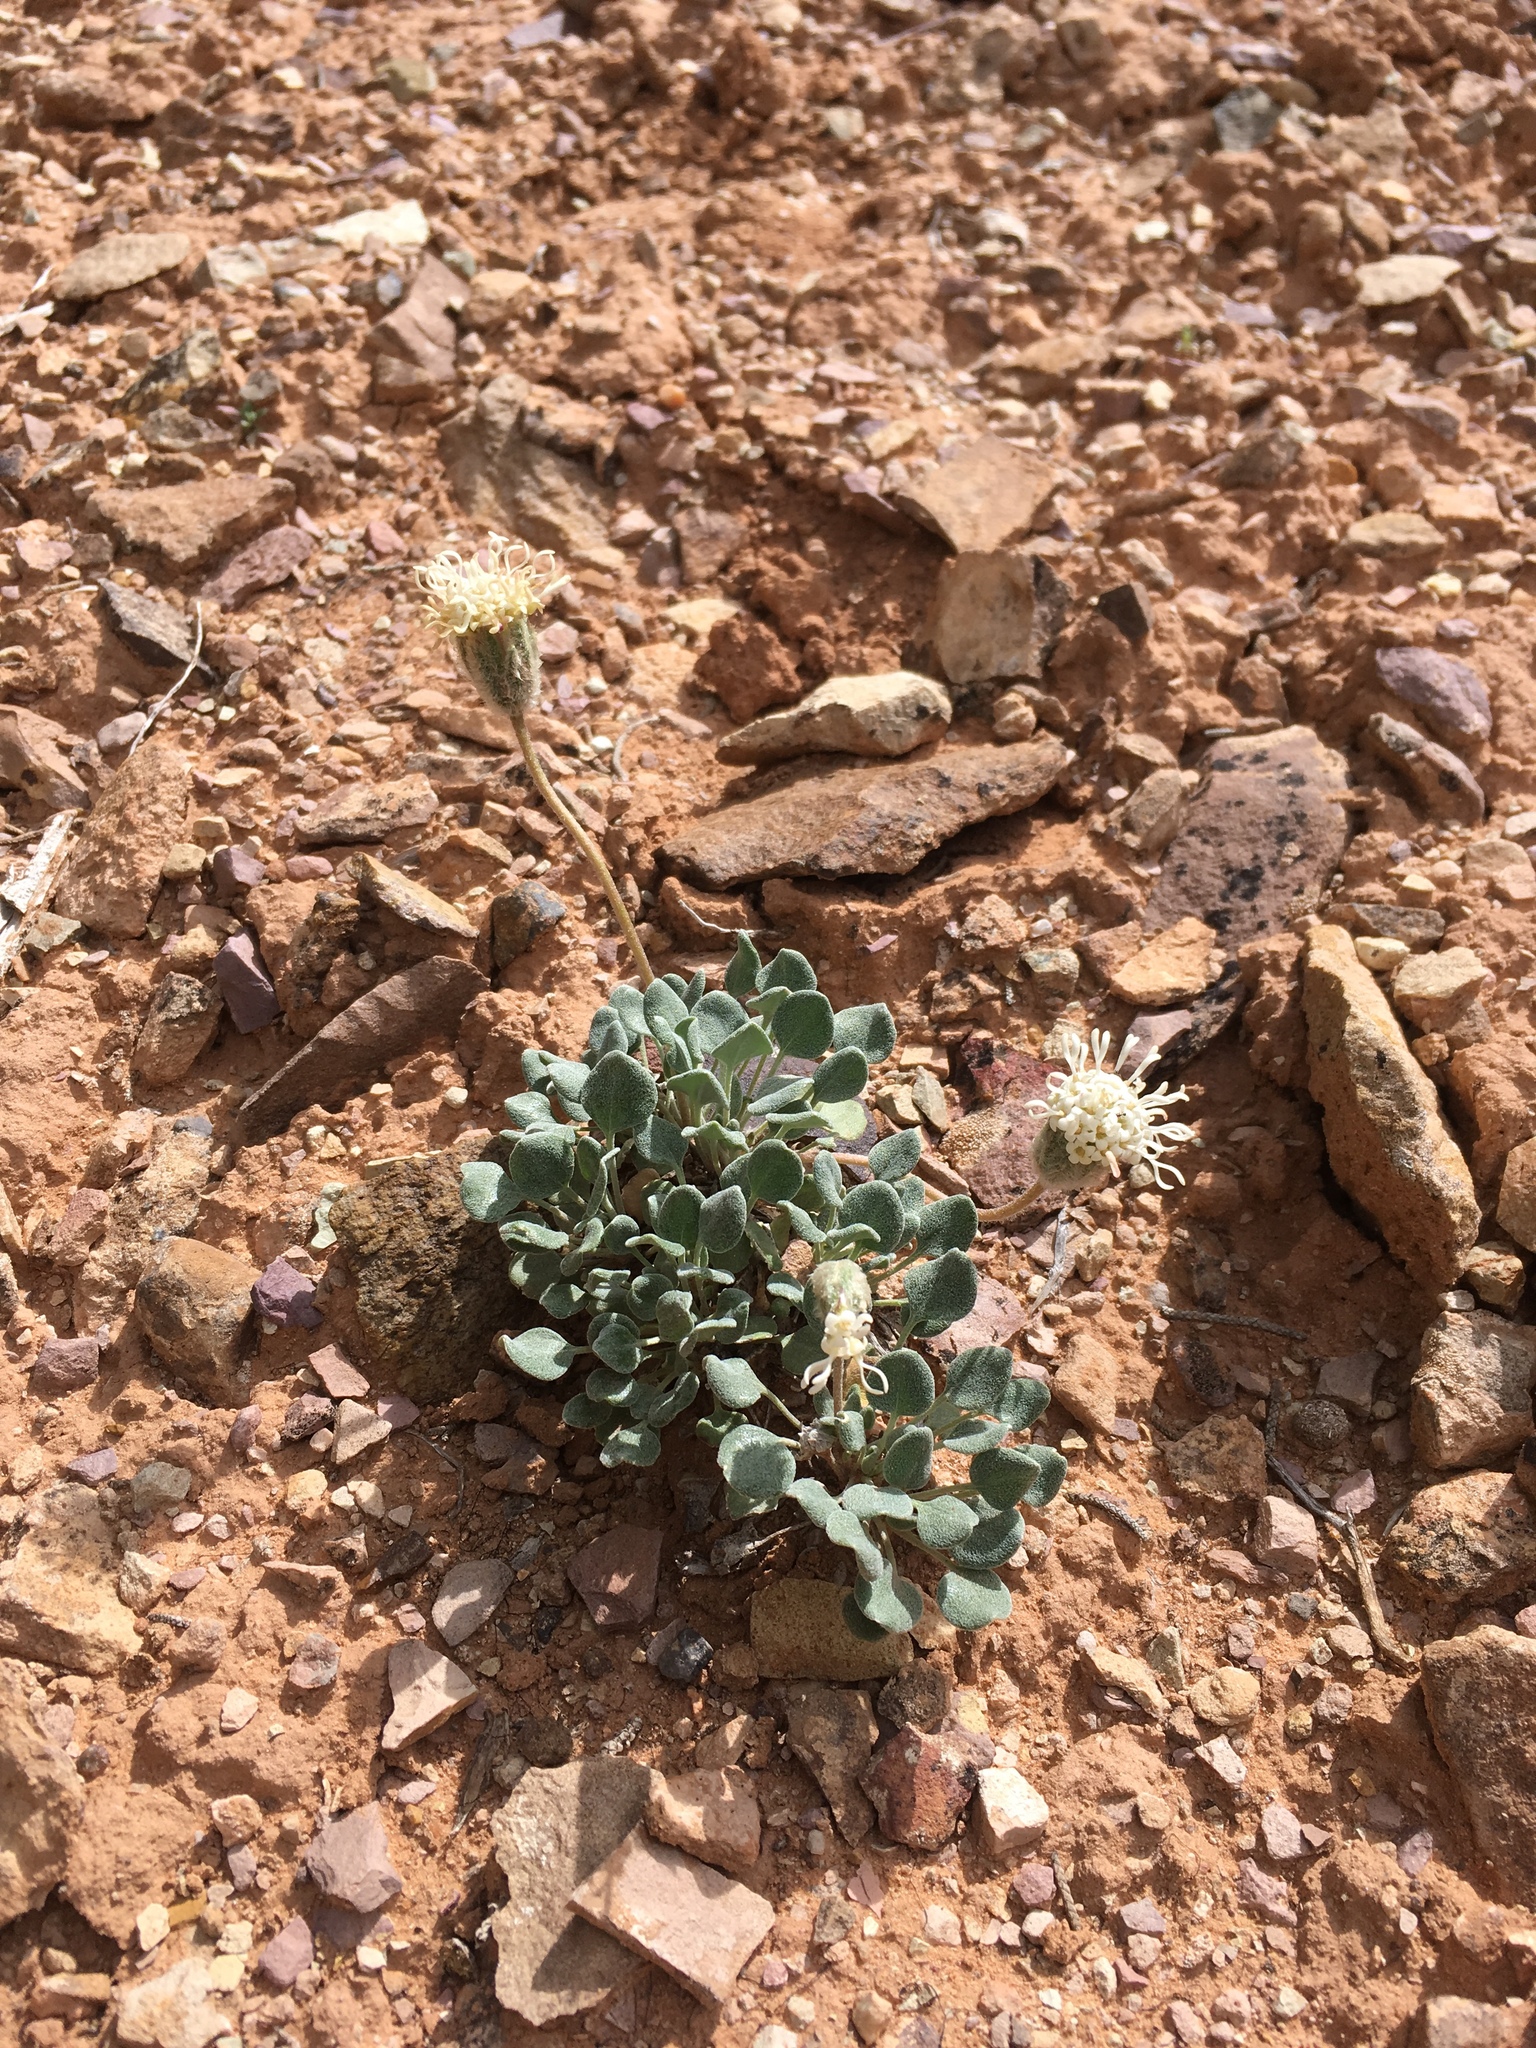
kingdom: Plantae
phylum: Tracheophyta
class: Magnoliopsida
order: Asterales
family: Asteraceae
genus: Chamaechaenactis
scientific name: Chamaechaenactis scaposa
